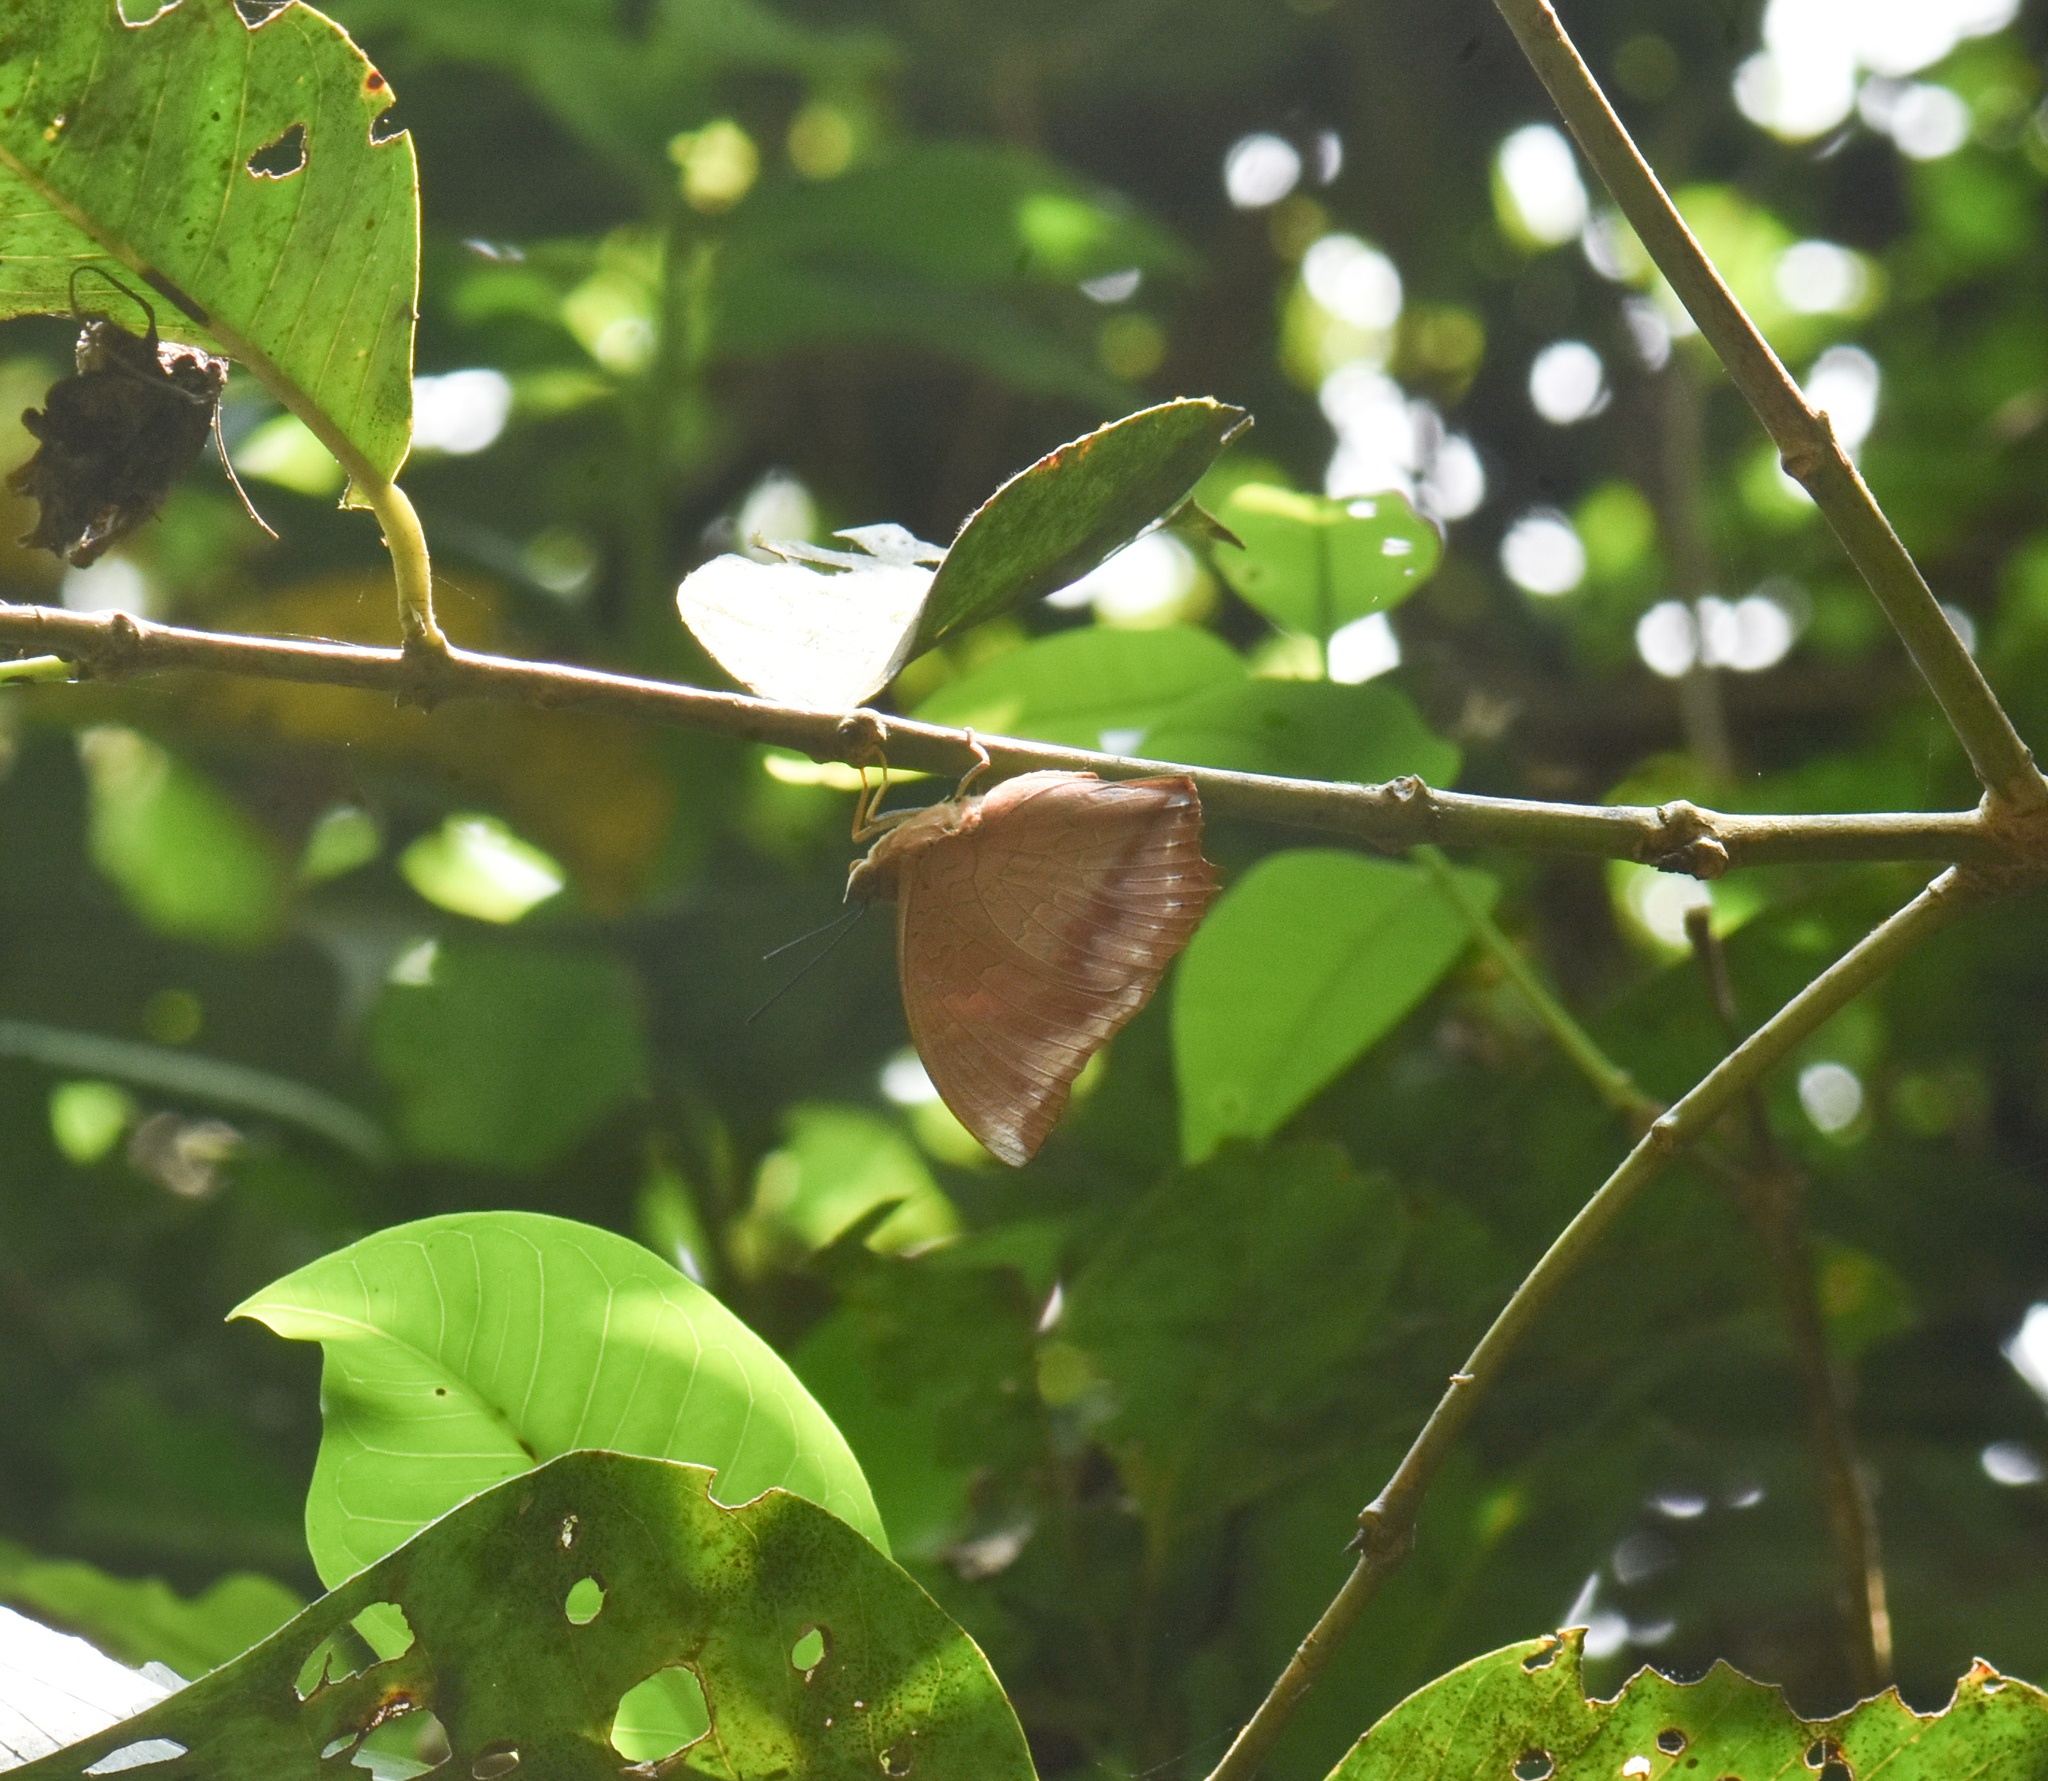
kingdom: Animalia
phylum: Arthropoda
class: Insecta
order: Lepidoptera
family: Nymphalidae
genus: Charaxes
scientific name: Charaxes bernardus
